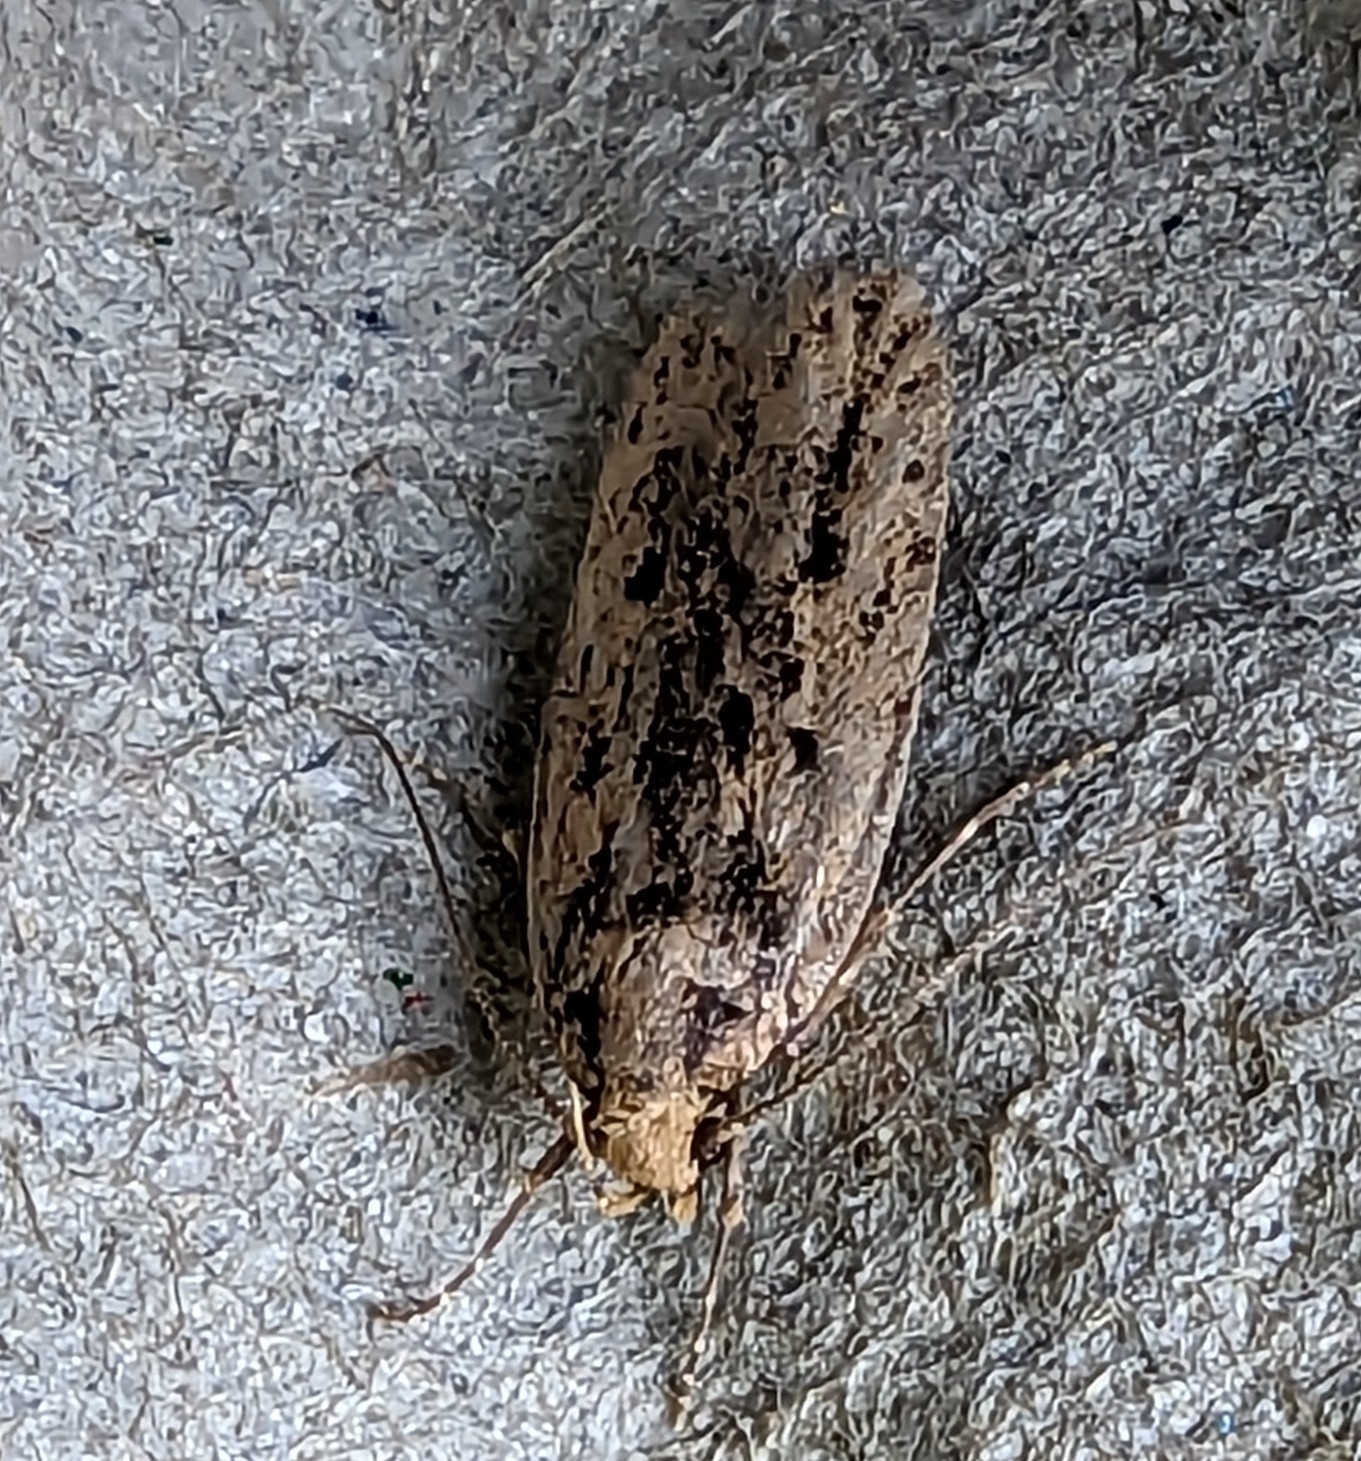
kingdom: Animalia
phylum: Arthropoda
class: Insecta
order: Lepidoptera
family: Oecophoridae
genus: Hofmannophila
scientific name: Hofmannophila pseudospretella
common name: Brown house moth
